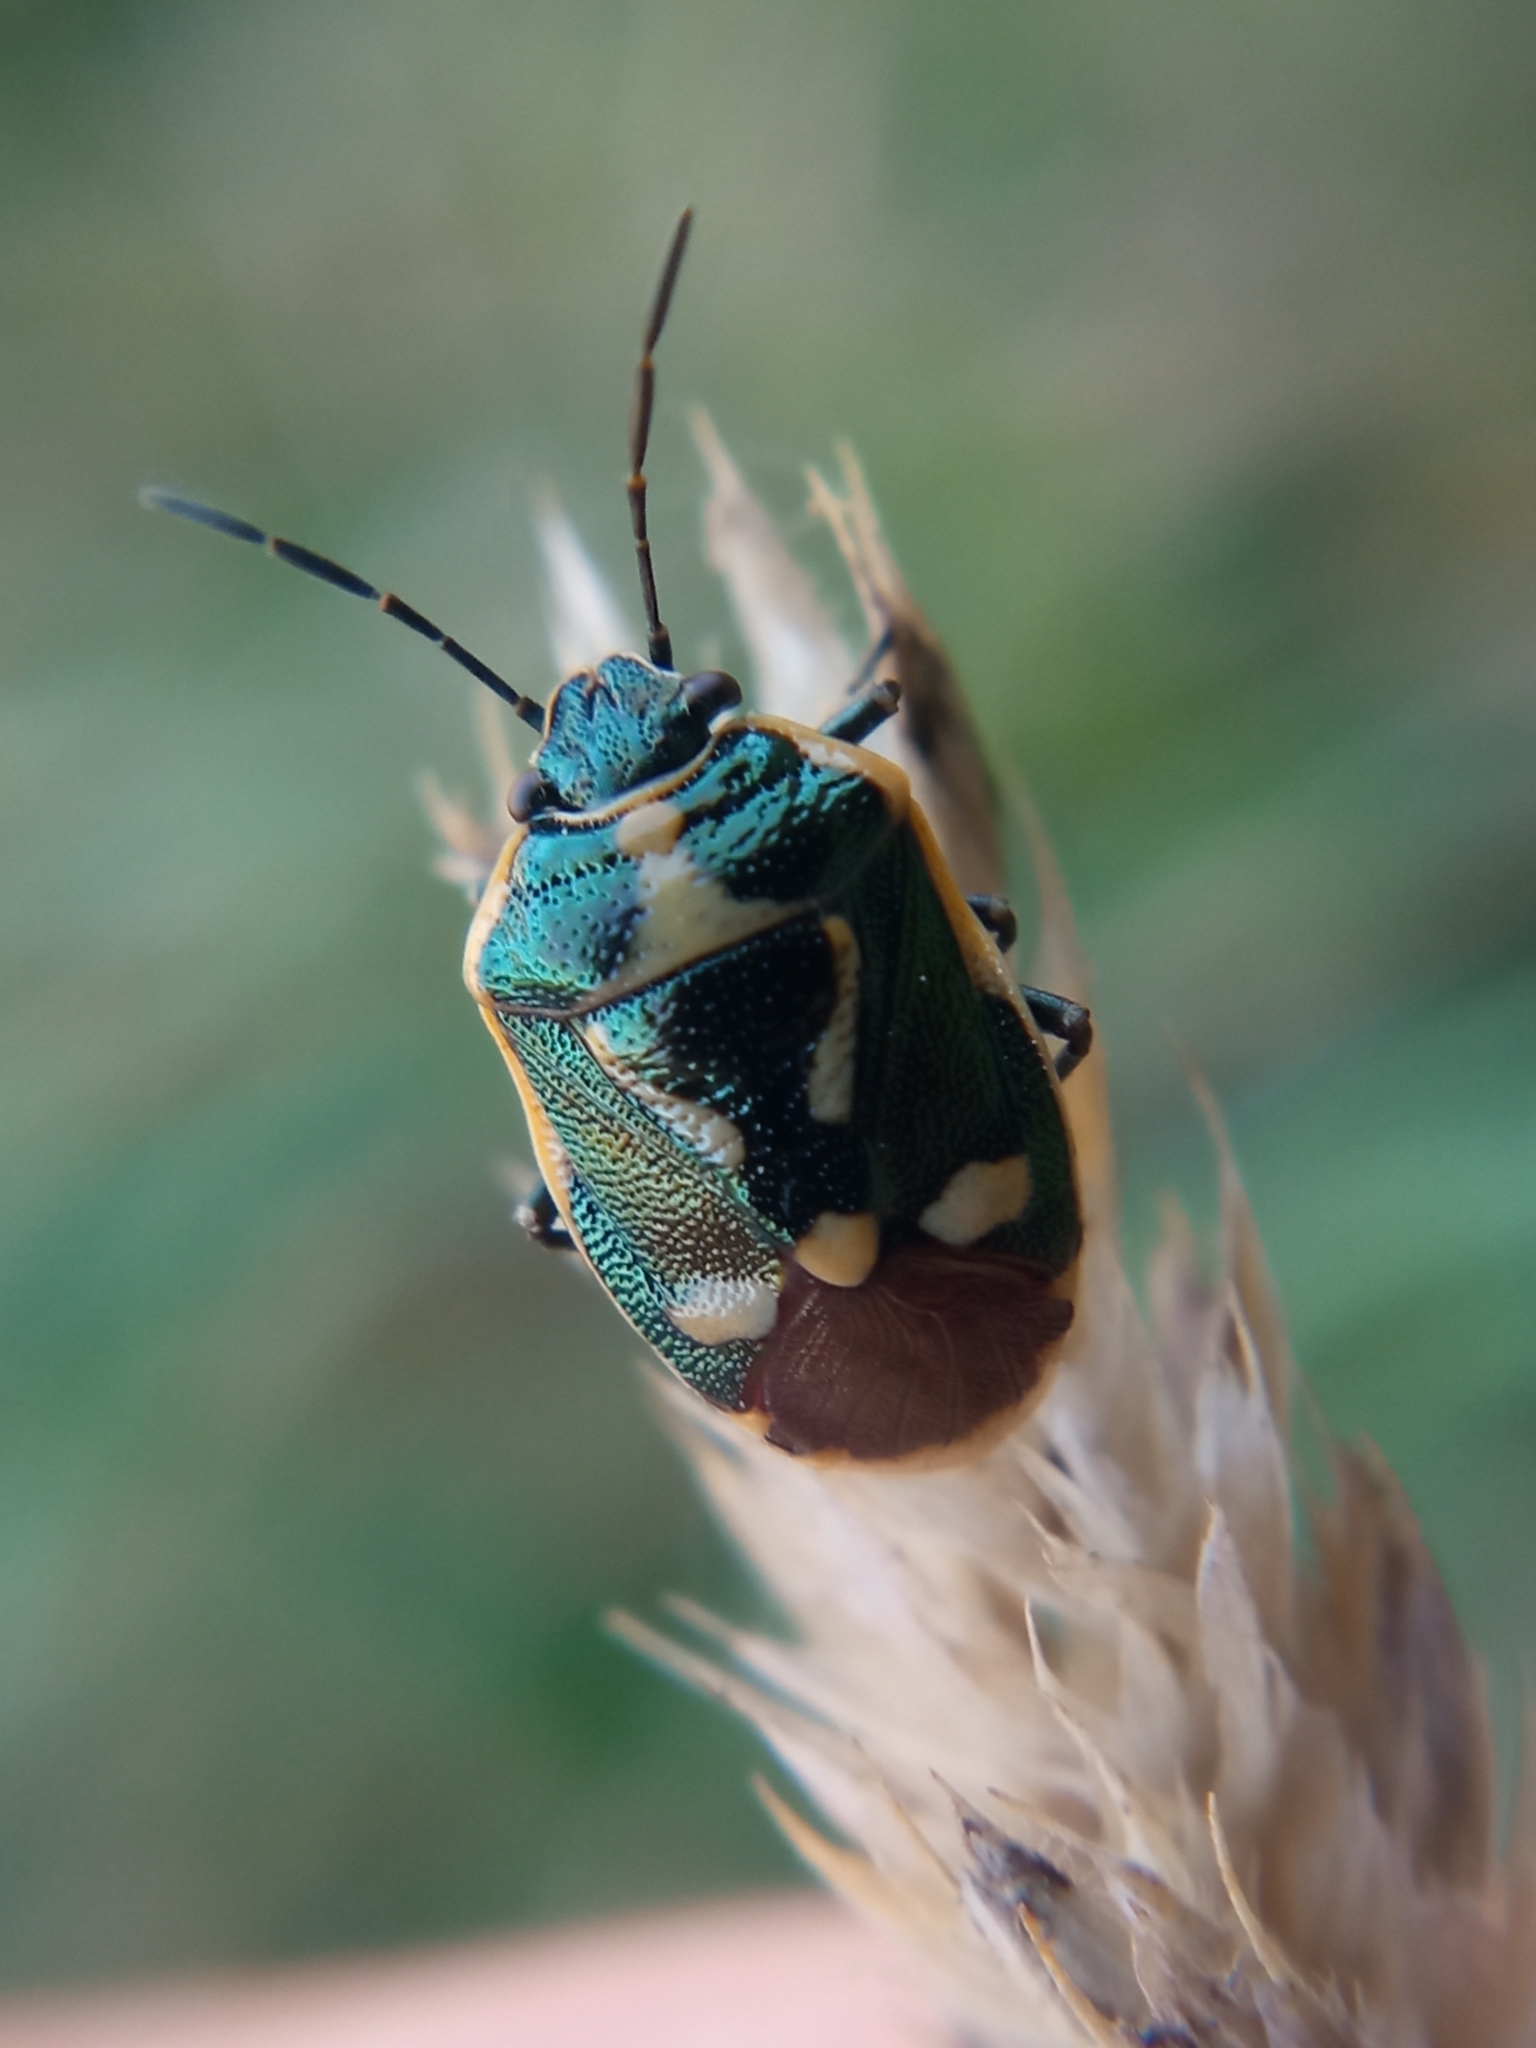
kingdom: Animalia
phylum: Arthropoda
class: Insecta
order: Hemiptera
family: Pentatomidae
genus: Eurydema
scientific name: Eurydema oleracea
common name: Cabbage bug
